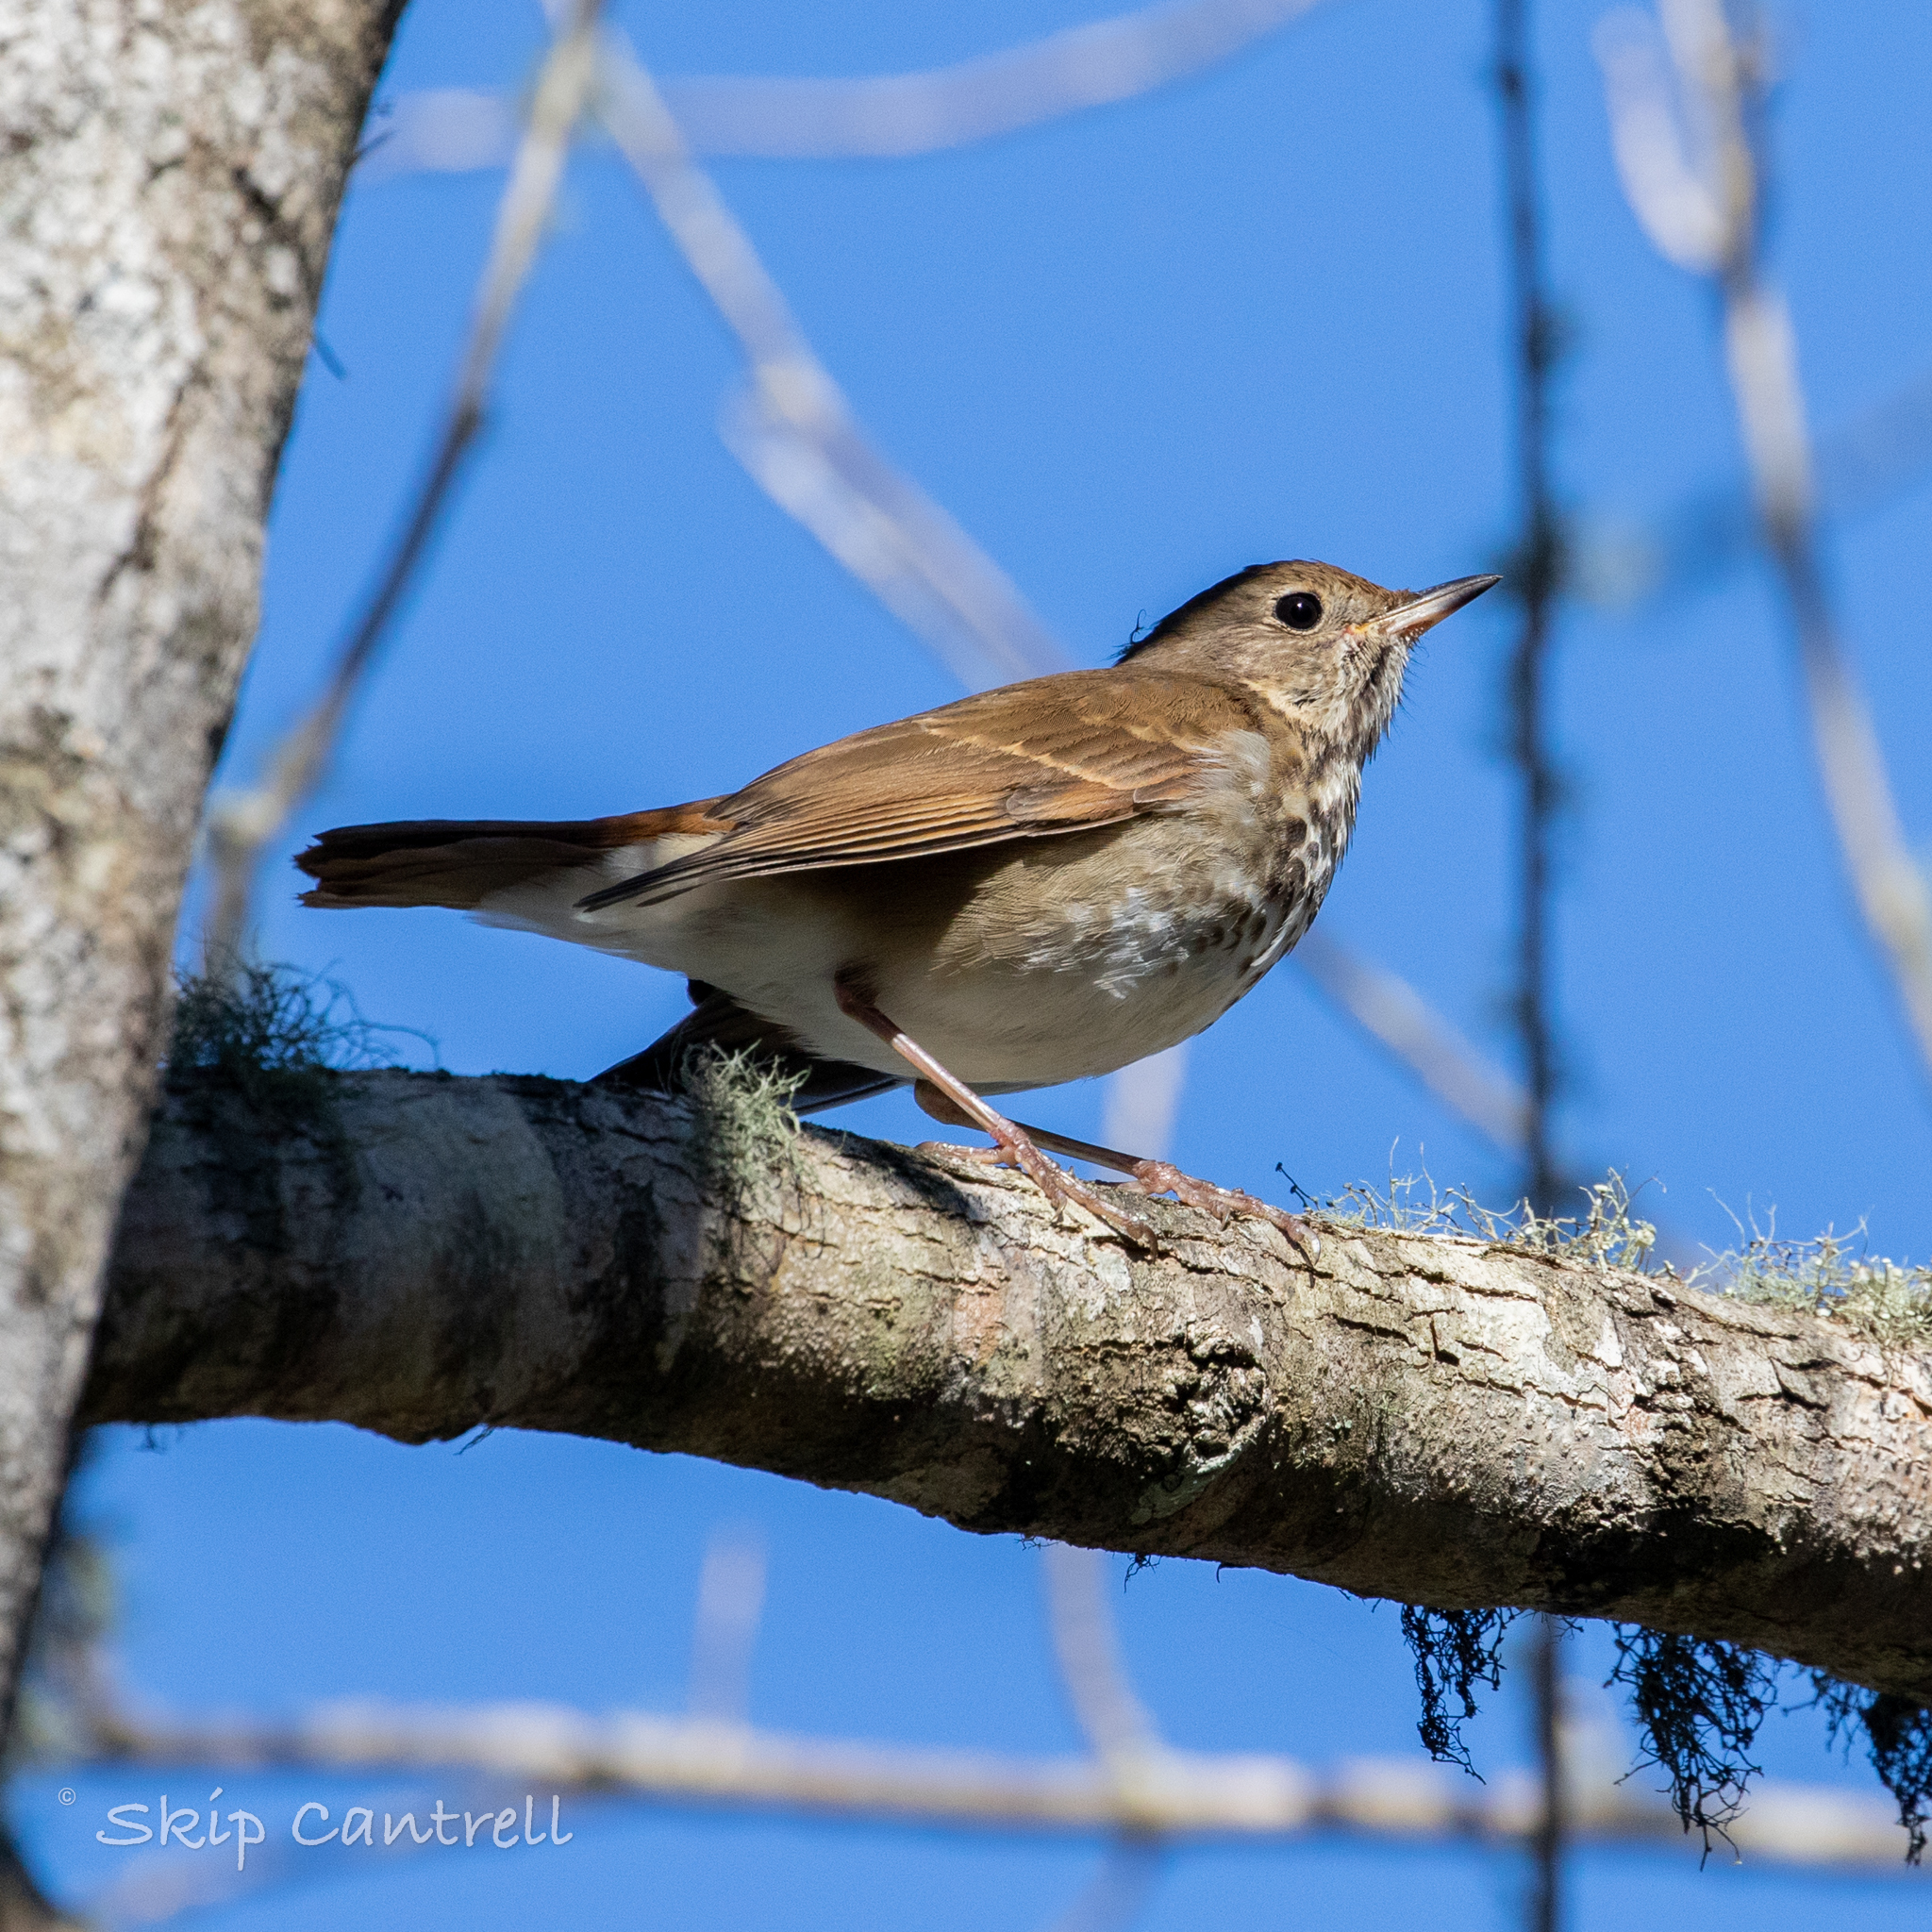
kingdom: Animalia
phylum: Chordata
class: Aves
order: Passeriformes
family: Turdidae
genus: Catharus
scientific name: Catharus guttatus
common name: Hermit thrush
